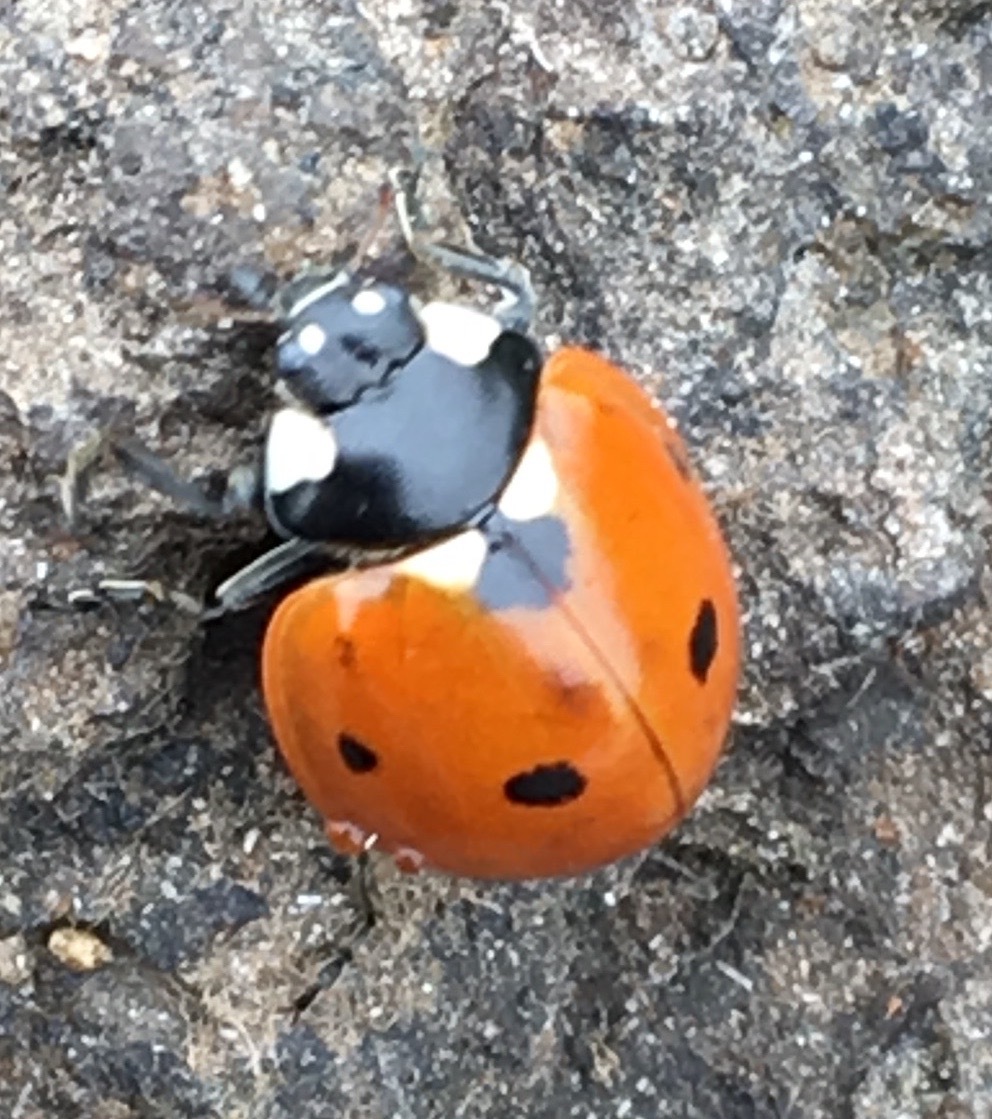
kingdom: Animalia
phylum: Arthropoda
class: Insecta
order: Coleoptera
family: Coccinellidae
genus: Coccinella
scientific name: Coccinella septempunctata
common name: Sevenspotted lady beetle
